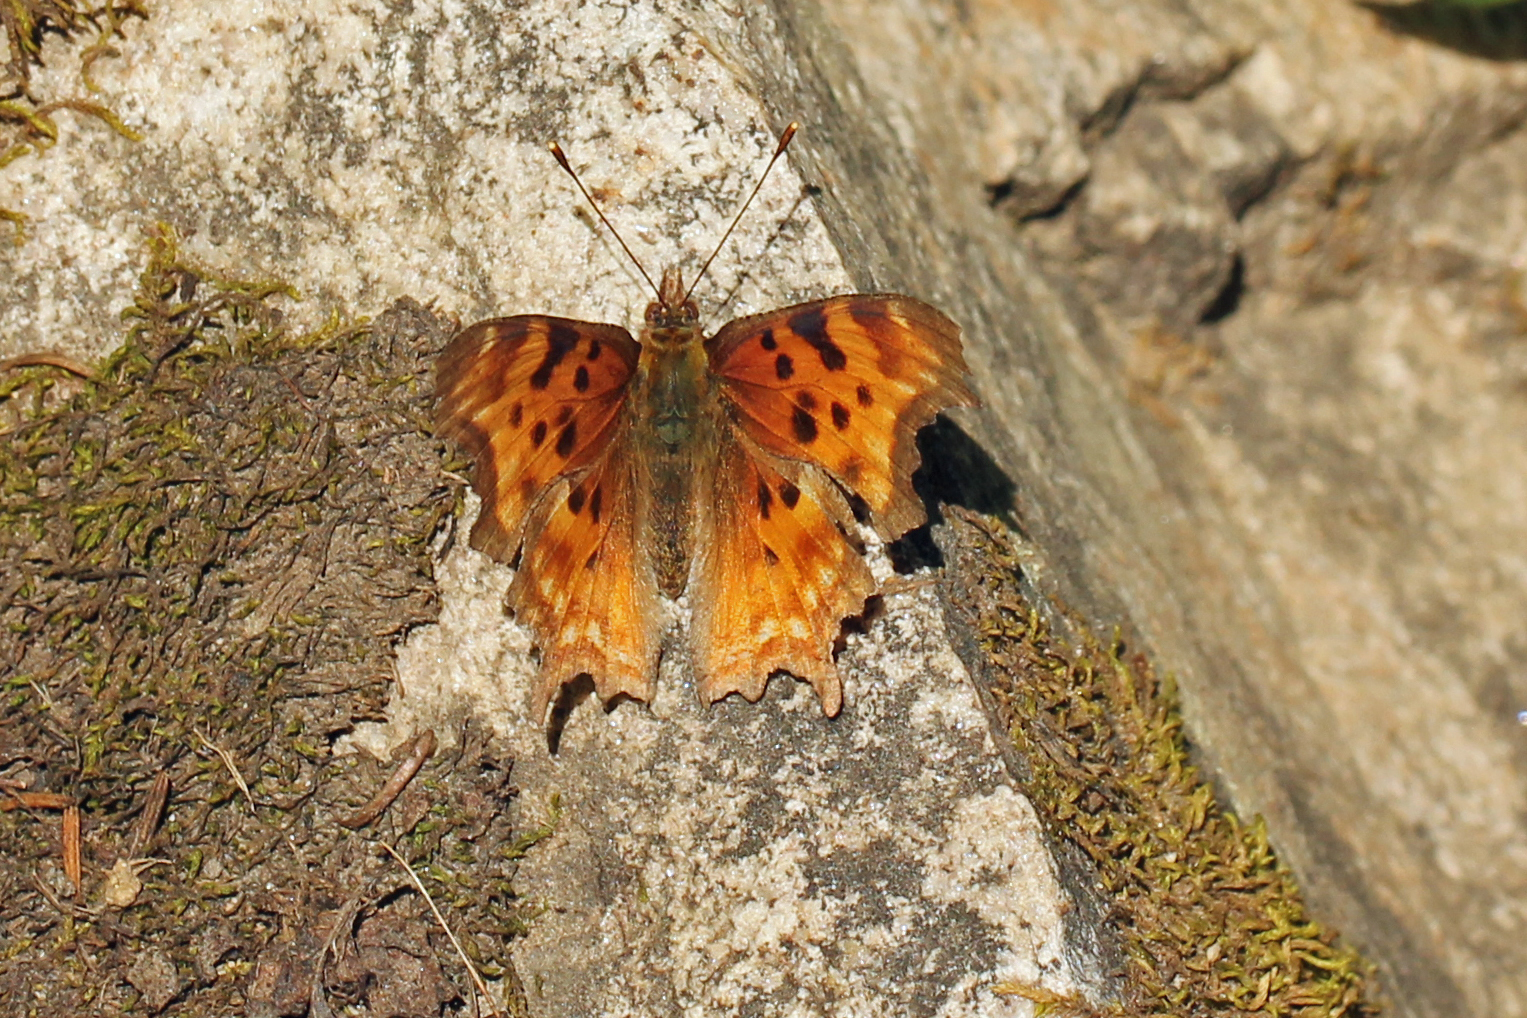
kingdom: Animalia
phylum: Arthropoda
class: Insecta
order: Lepidoptera
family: Nymphalidae
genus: Polygonia
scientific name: Polygonia satyrus
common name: Satyr angle wing
